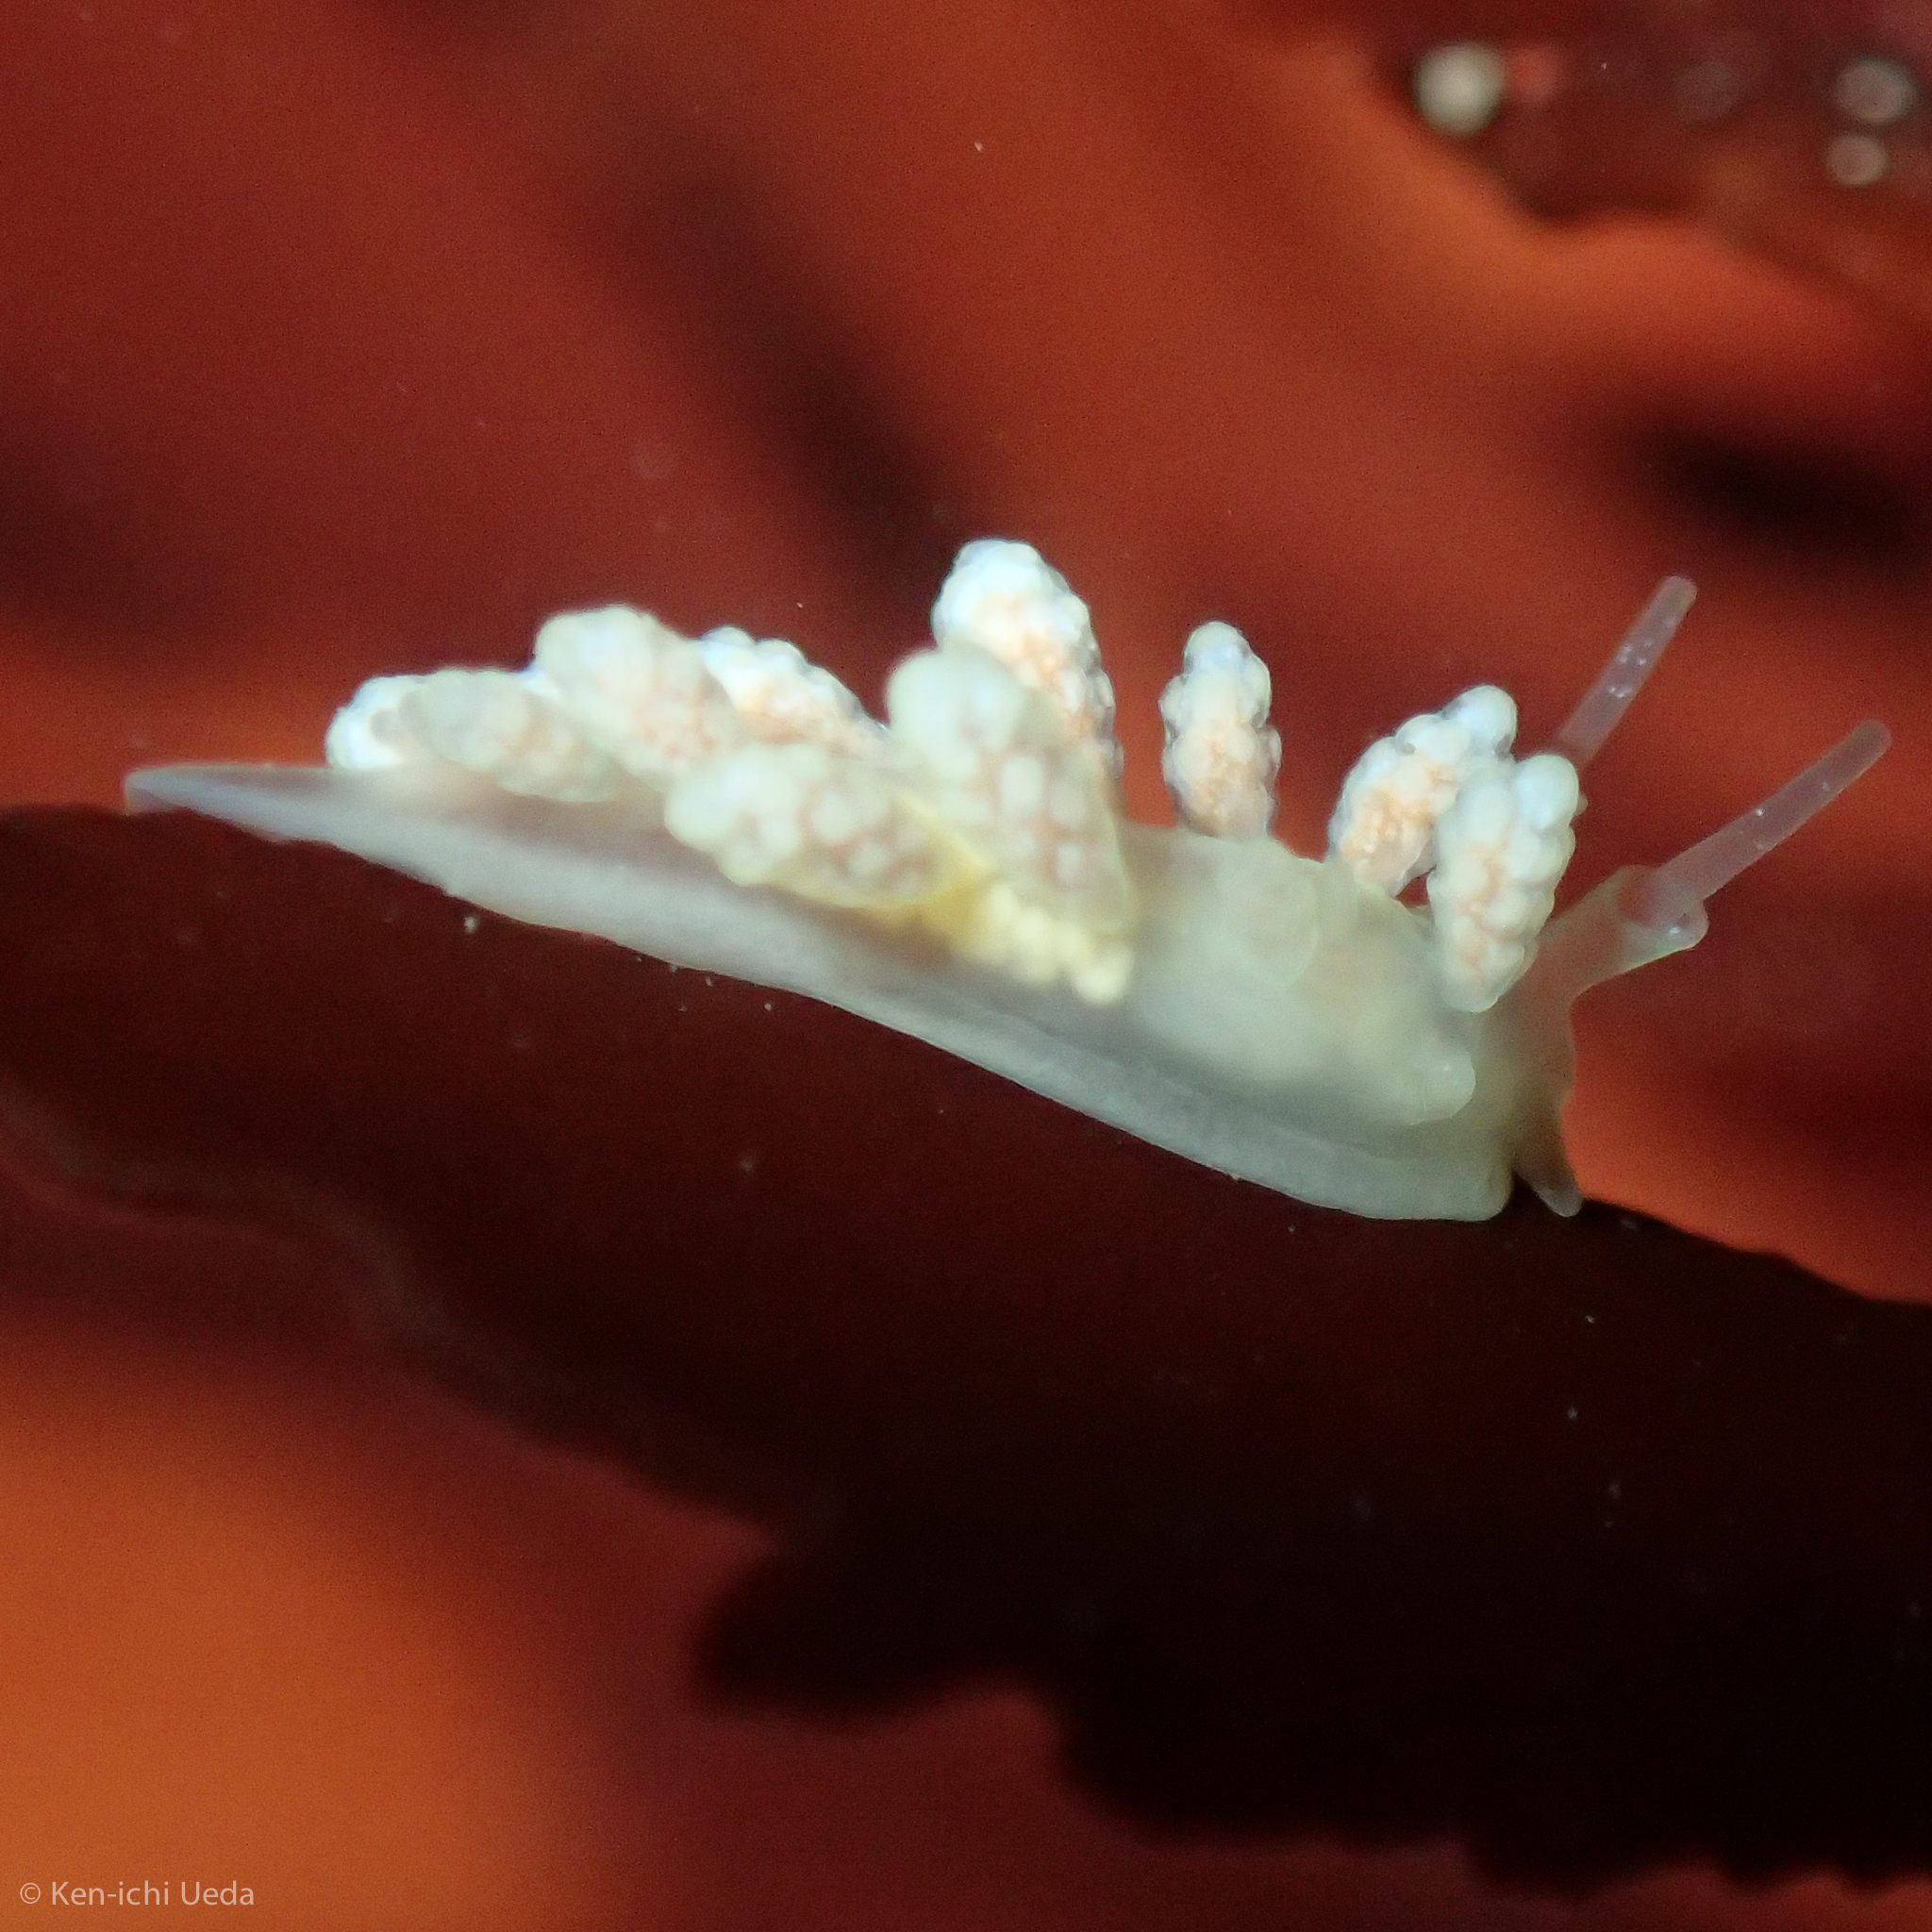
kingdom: Animalia
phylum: Mollusca
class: Gastropoda
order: Nudibranchia
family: Dotidae
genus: Doto
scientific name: Doto amyra
